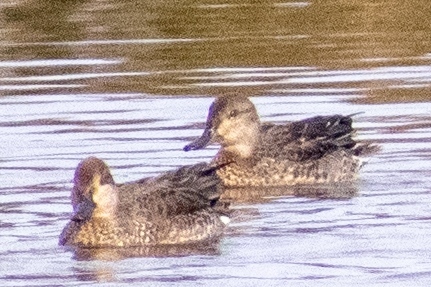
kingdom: Animalia
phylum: Chordata
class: Aves
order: Anseriformes
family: Anatidae
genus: Anas
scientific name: Anas crecca
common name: Eurasian teal
